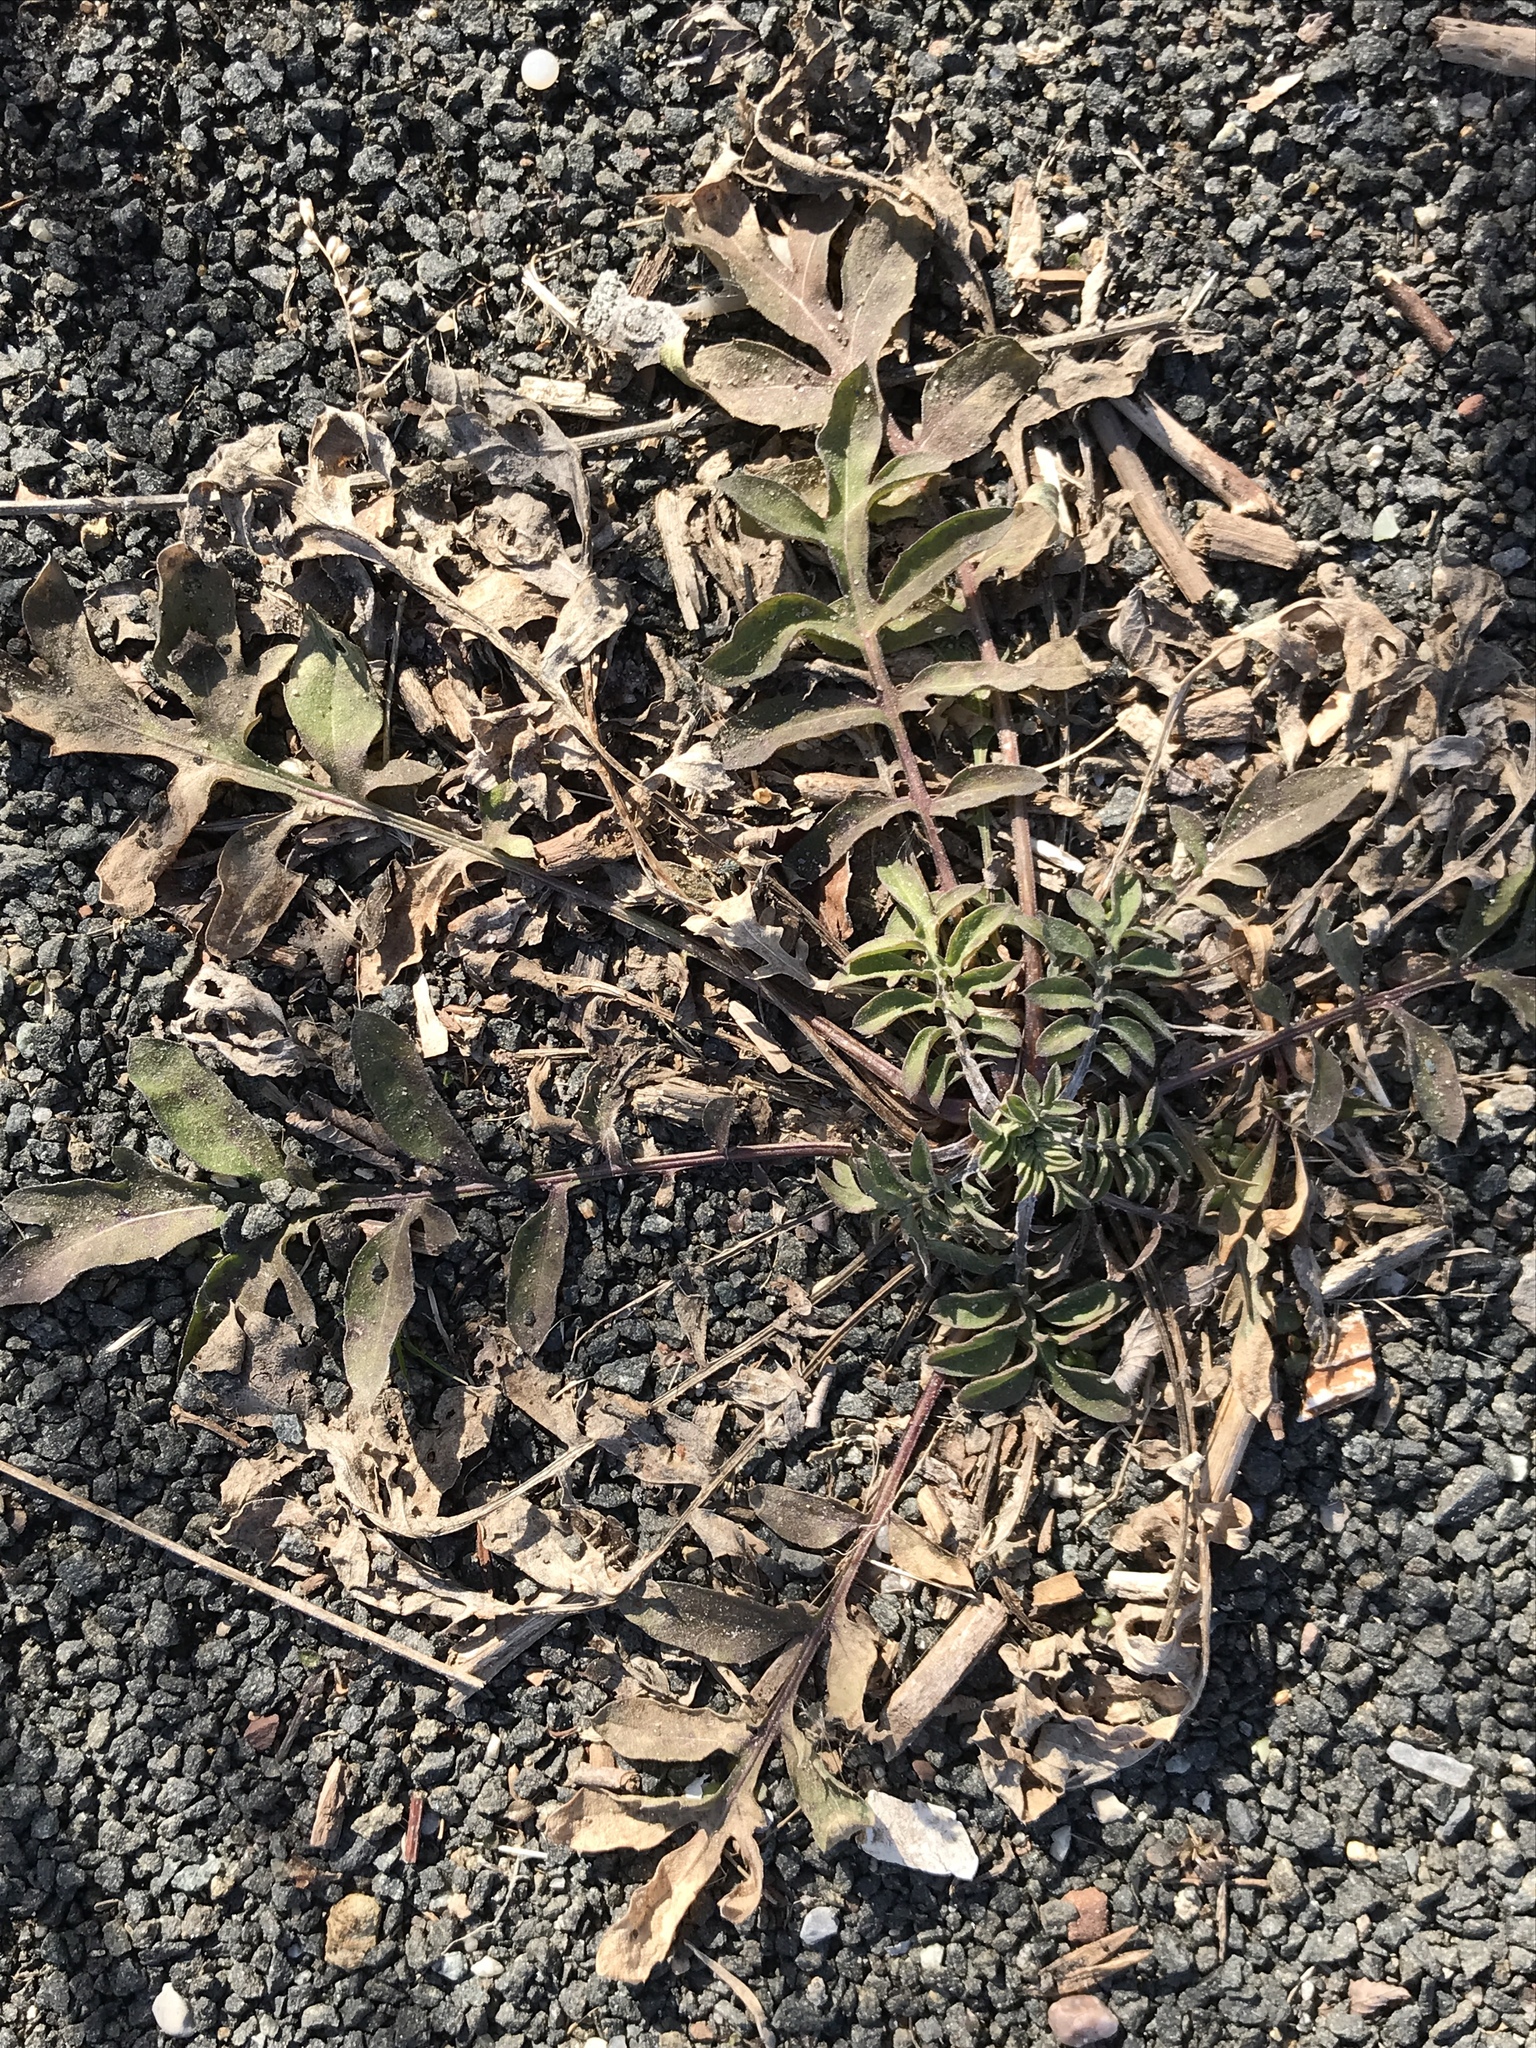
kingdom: Plantae
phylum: Tracheophyta
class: Magnoliopsida
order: Asterales
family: Asteraceae
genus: Centaurea
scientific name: Centaurea stoebe
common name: Spotted knapweed
